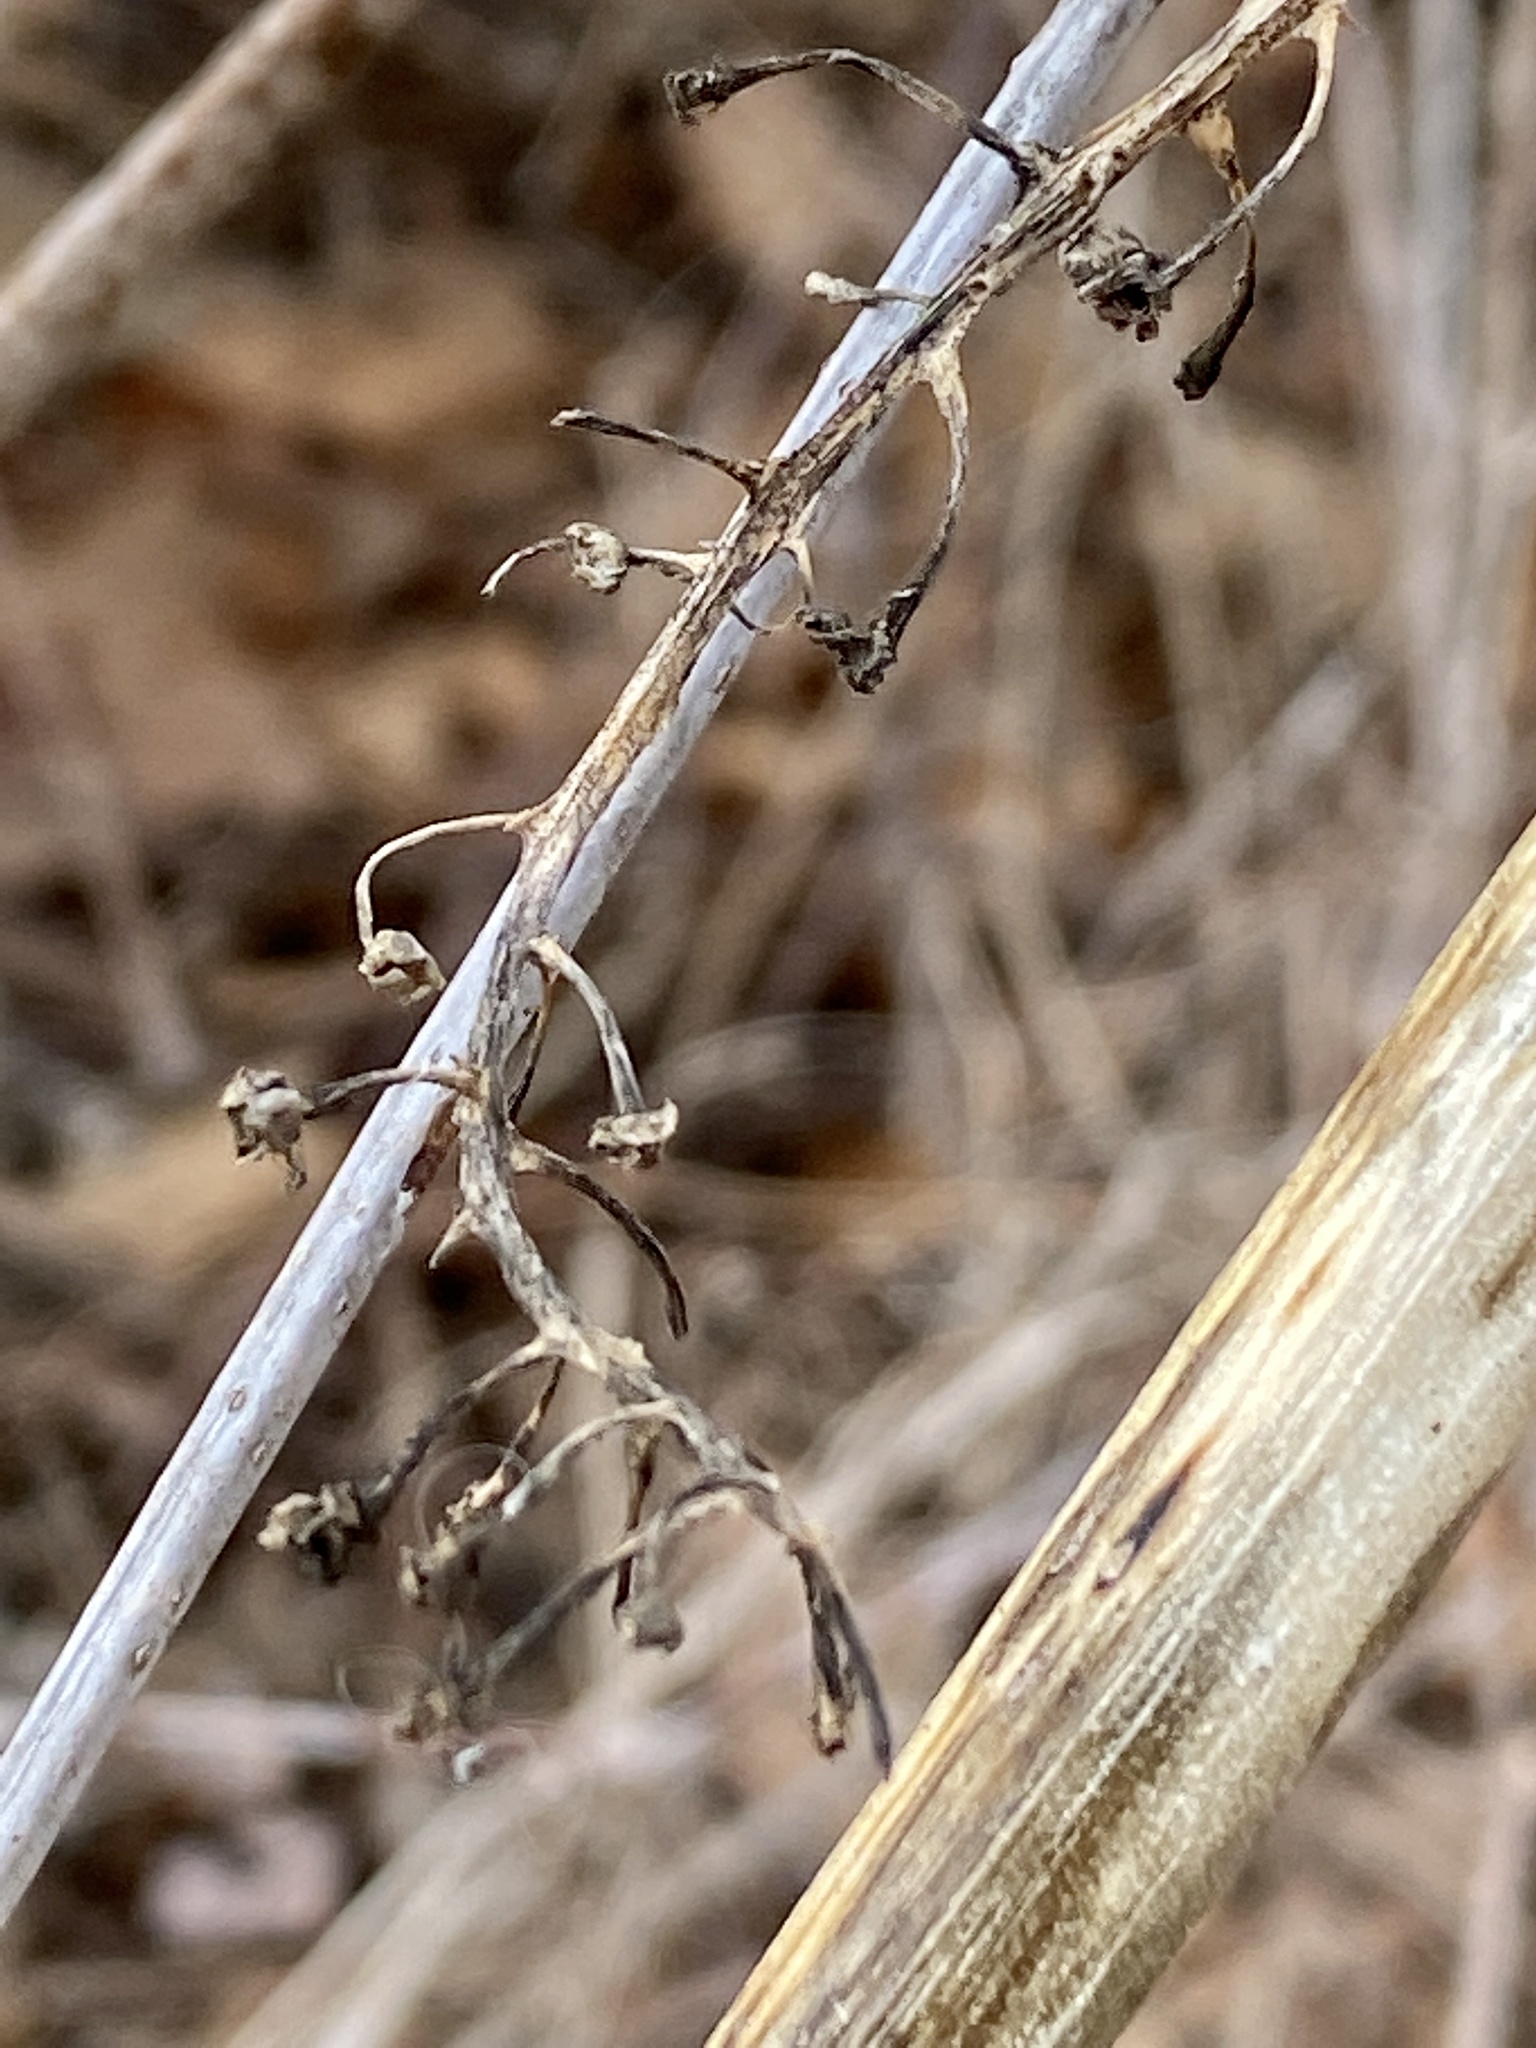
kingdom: Plantae
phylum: Tracheophyta
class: Magnoliopsida
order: Caryophyllales
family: Phytolaccaceae
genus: Phytolacca
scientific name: Phytolacca americana
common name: American pokeweed
